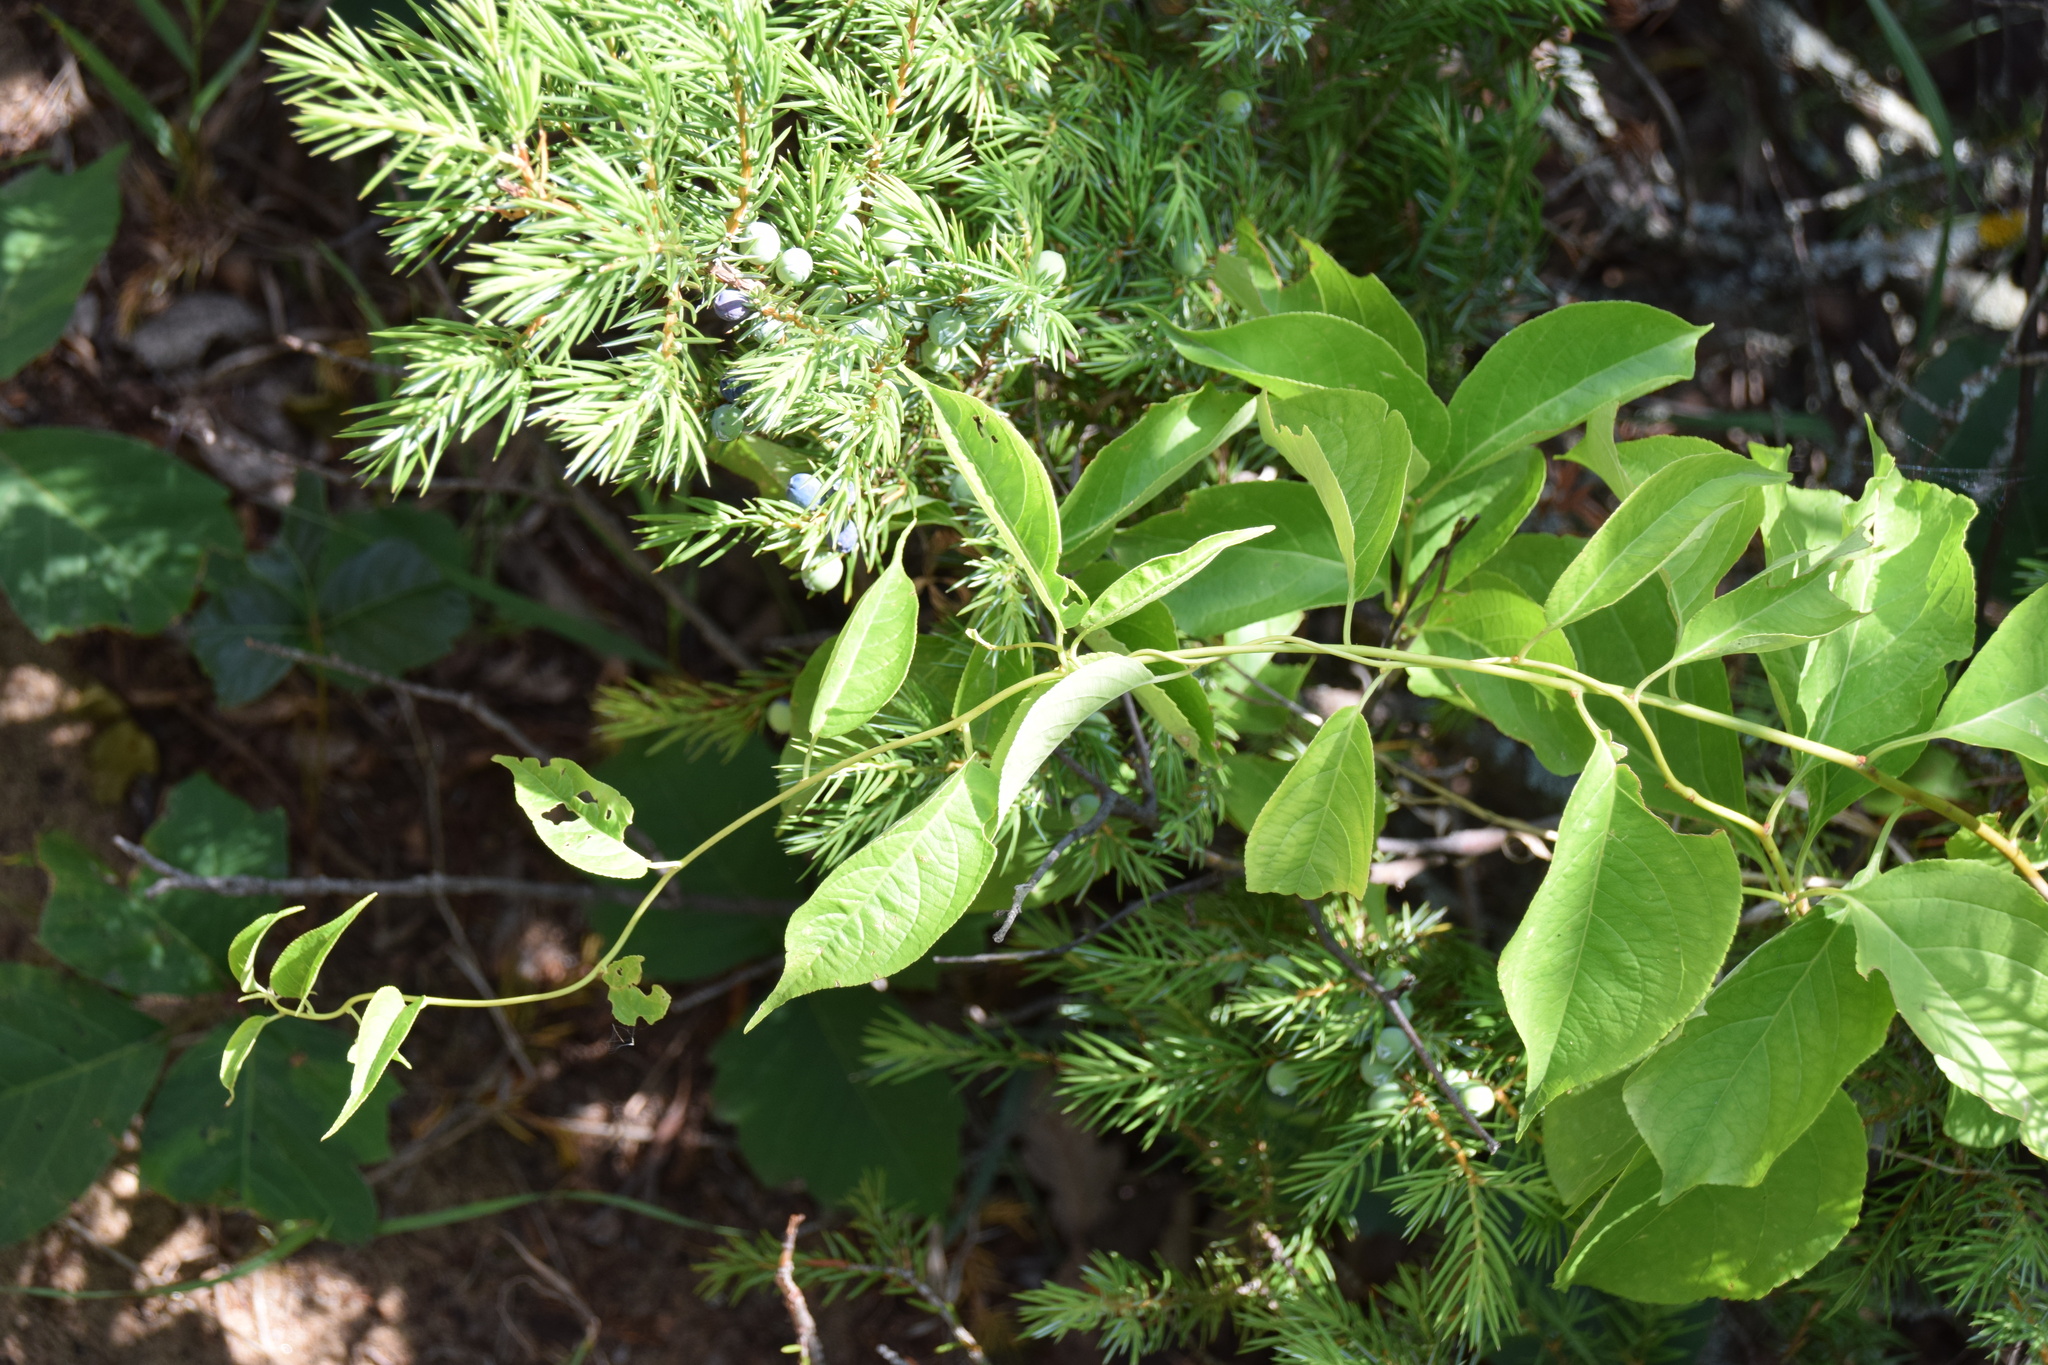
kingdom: Plantae
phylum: Tracheophyta
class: Magnoliopsida
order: Celastrales
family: Celastraceae
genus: Celastrus
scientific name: Celastrus scandens
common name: American bittersweet
